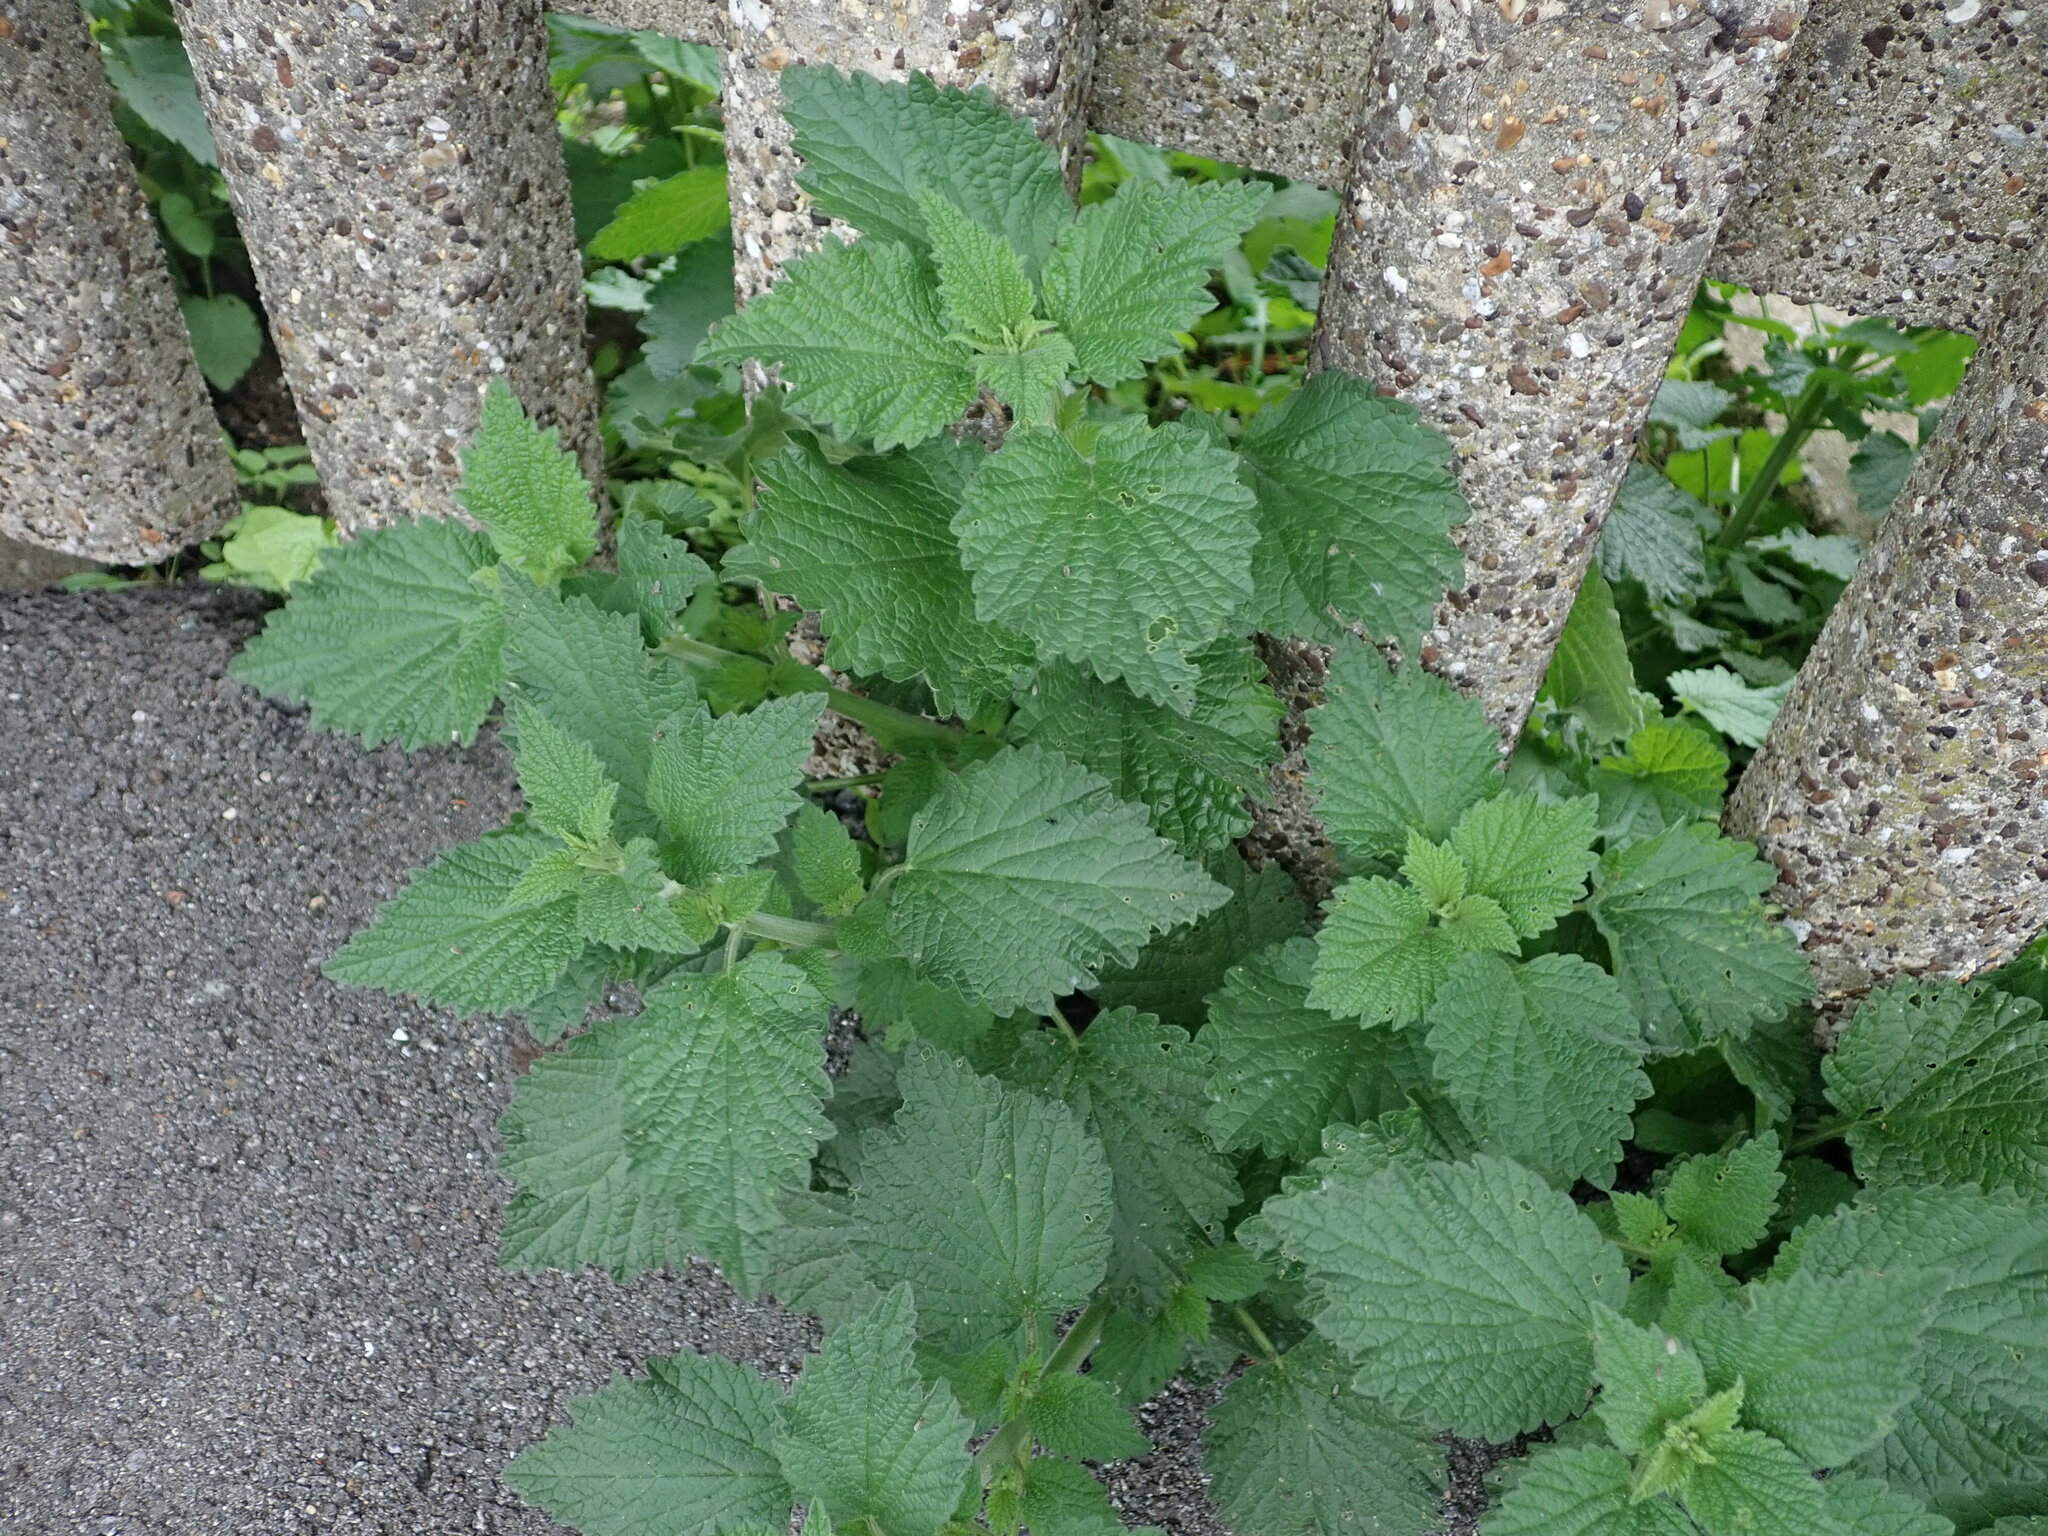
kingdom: Plantae
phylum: Tracheophyta
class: Magnoliopsida
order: Lamiales
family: Lamiaceae
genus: Ballota
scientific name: Ballota nigra
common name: Black horehound
